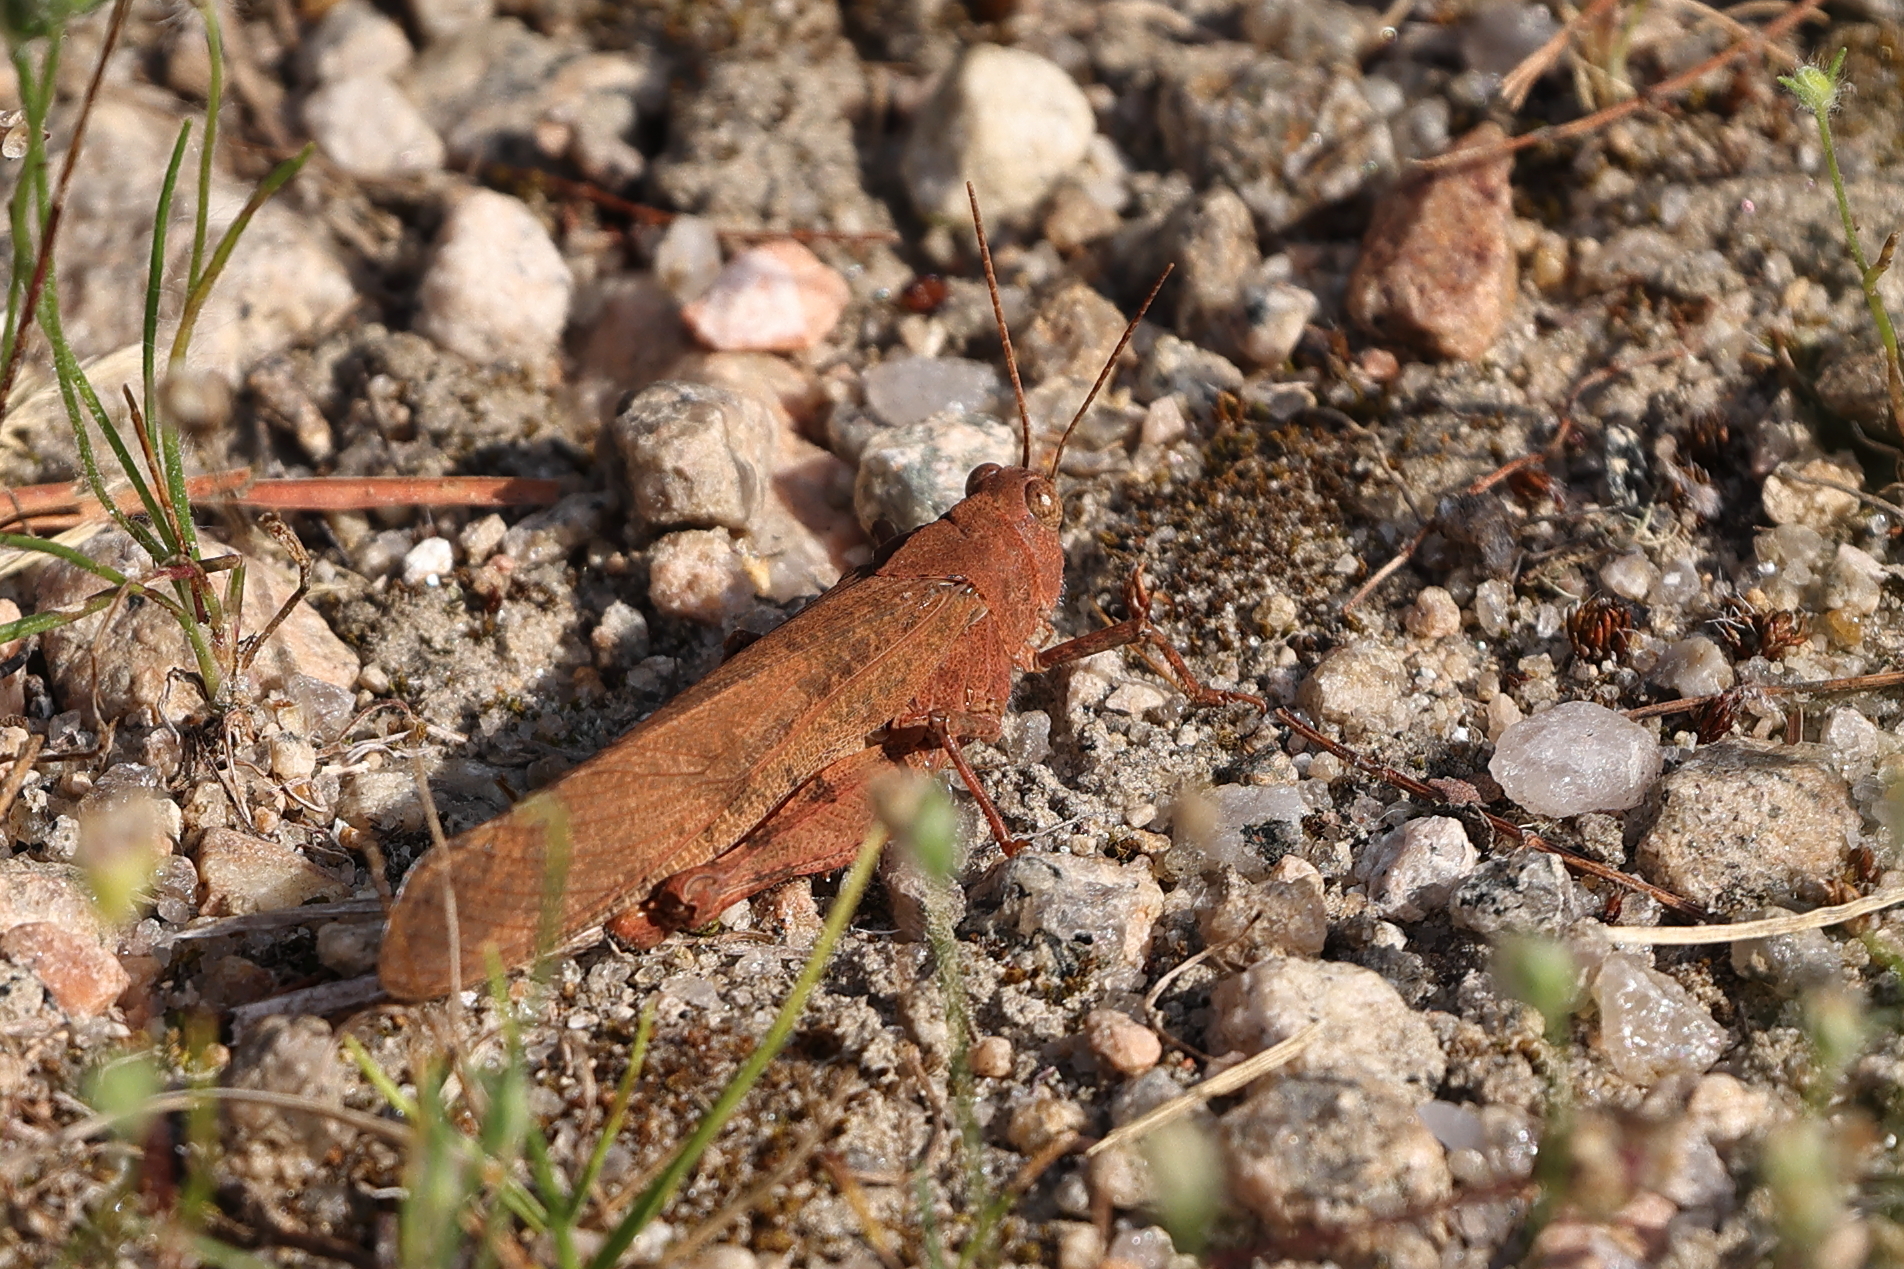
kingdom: Animalia
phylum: Arthropoda
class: Insecta
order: Orthoptera
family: Acrididae
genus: Dissosteira
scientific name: Dissosteira carolina
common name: Carolina grasshopper
